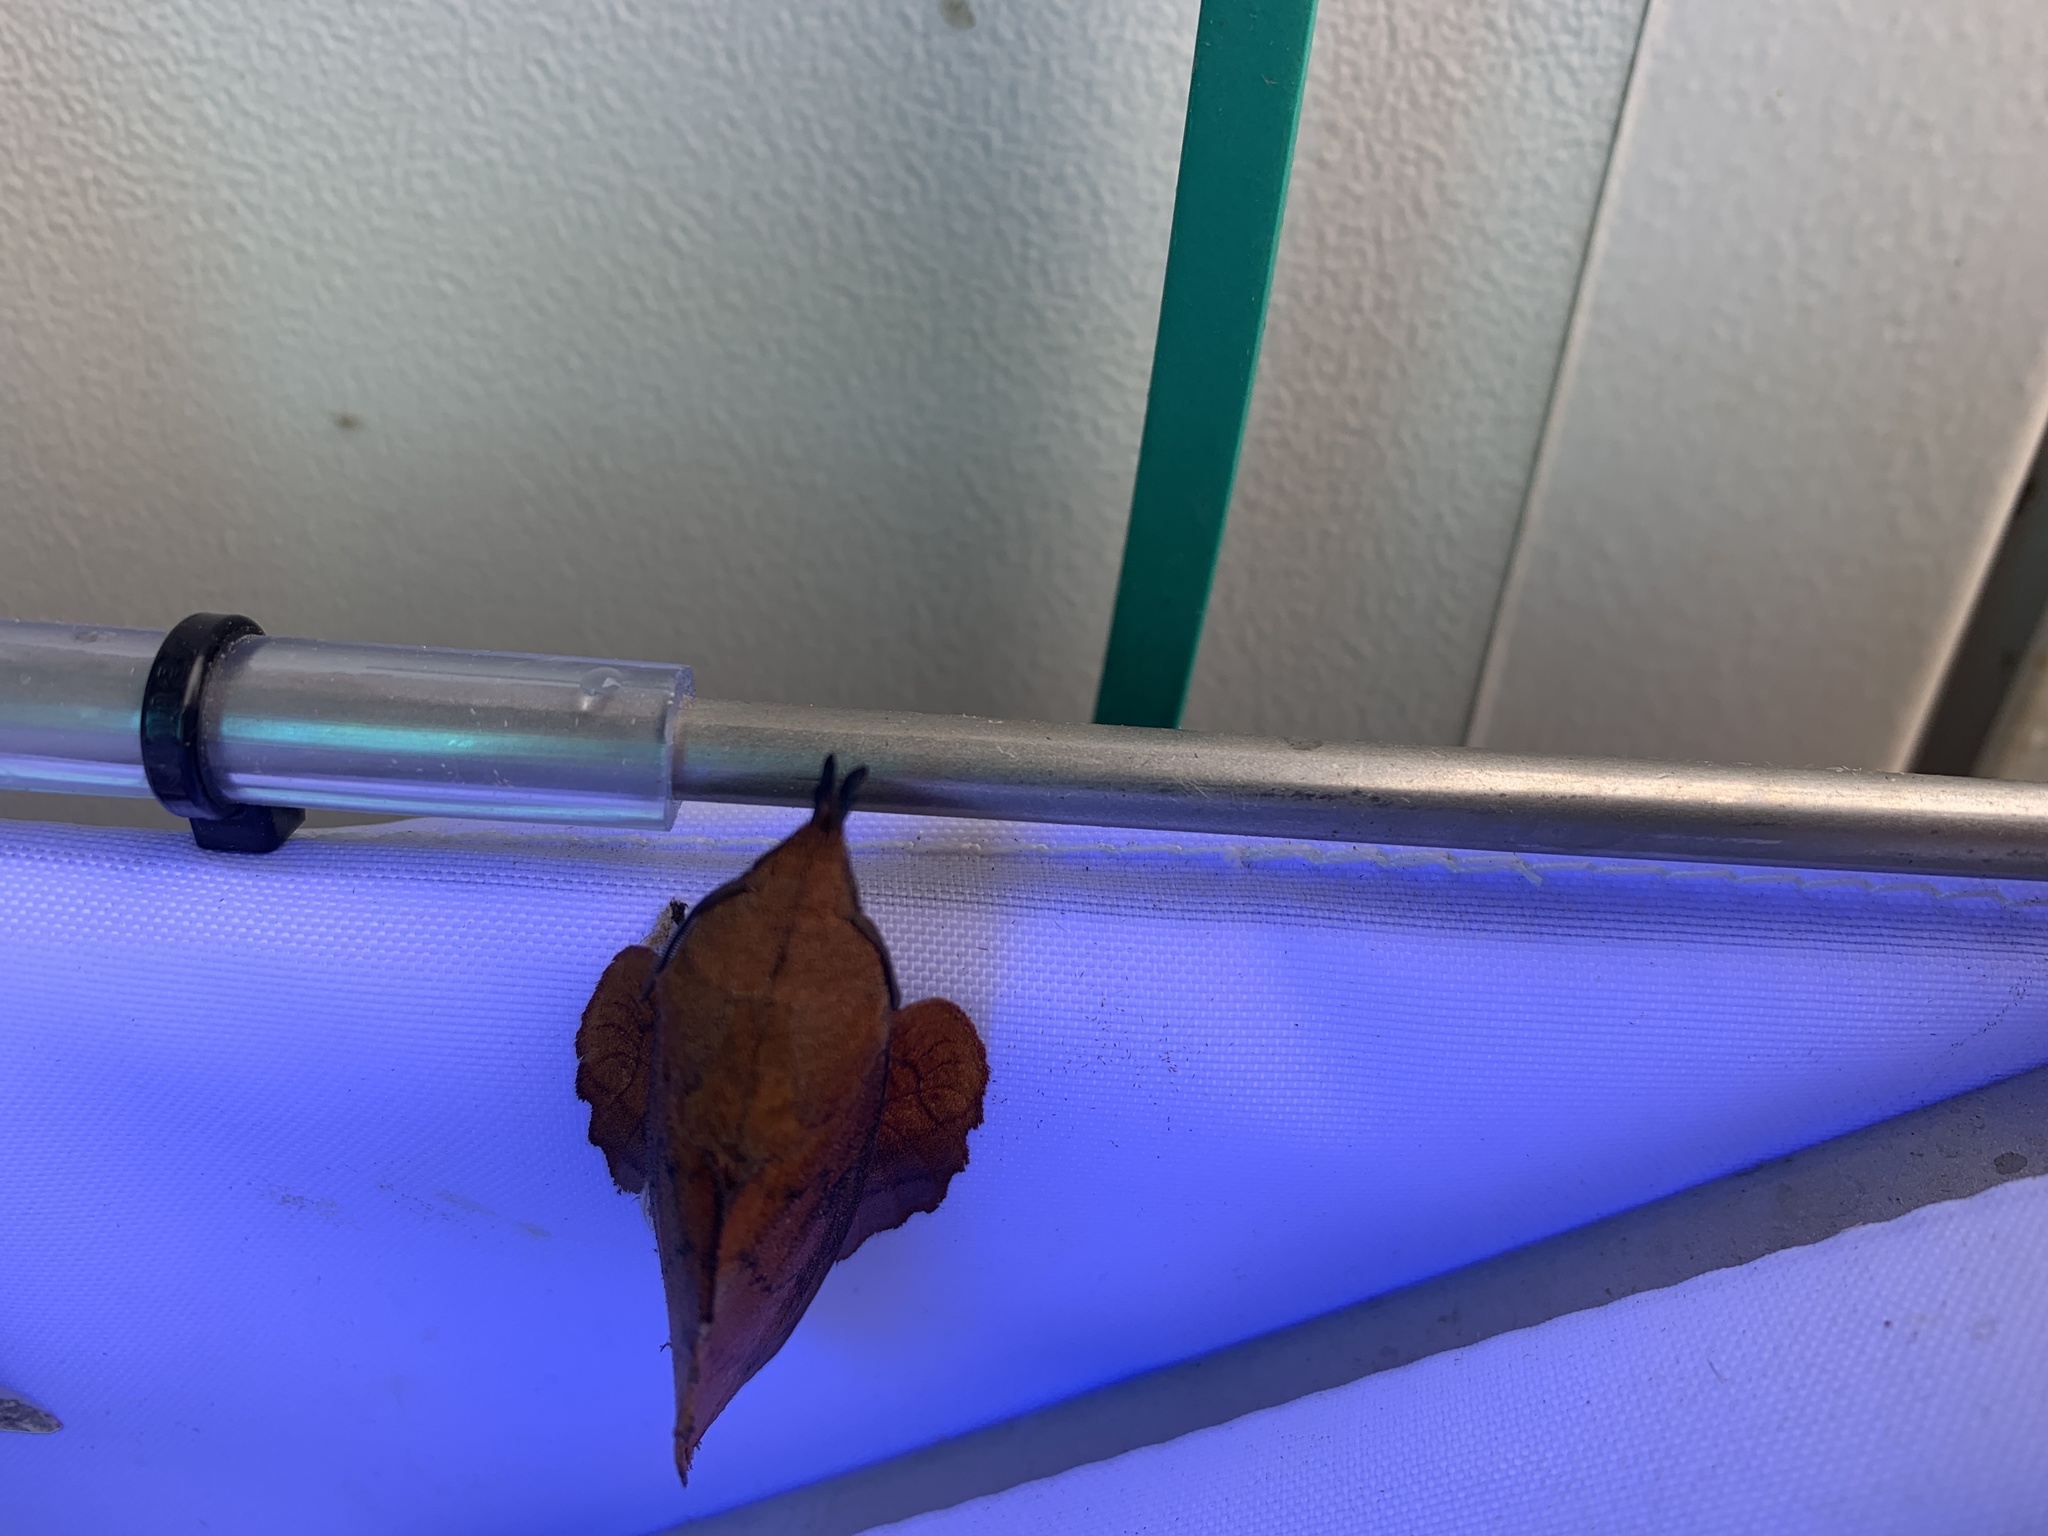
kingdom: Animalia
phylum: Arthropoda
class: Insecta
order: Lepidoptera
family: Lasiocampidae
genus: Gastropacha
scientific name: Gastropacha quercifolia
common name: Lappet
